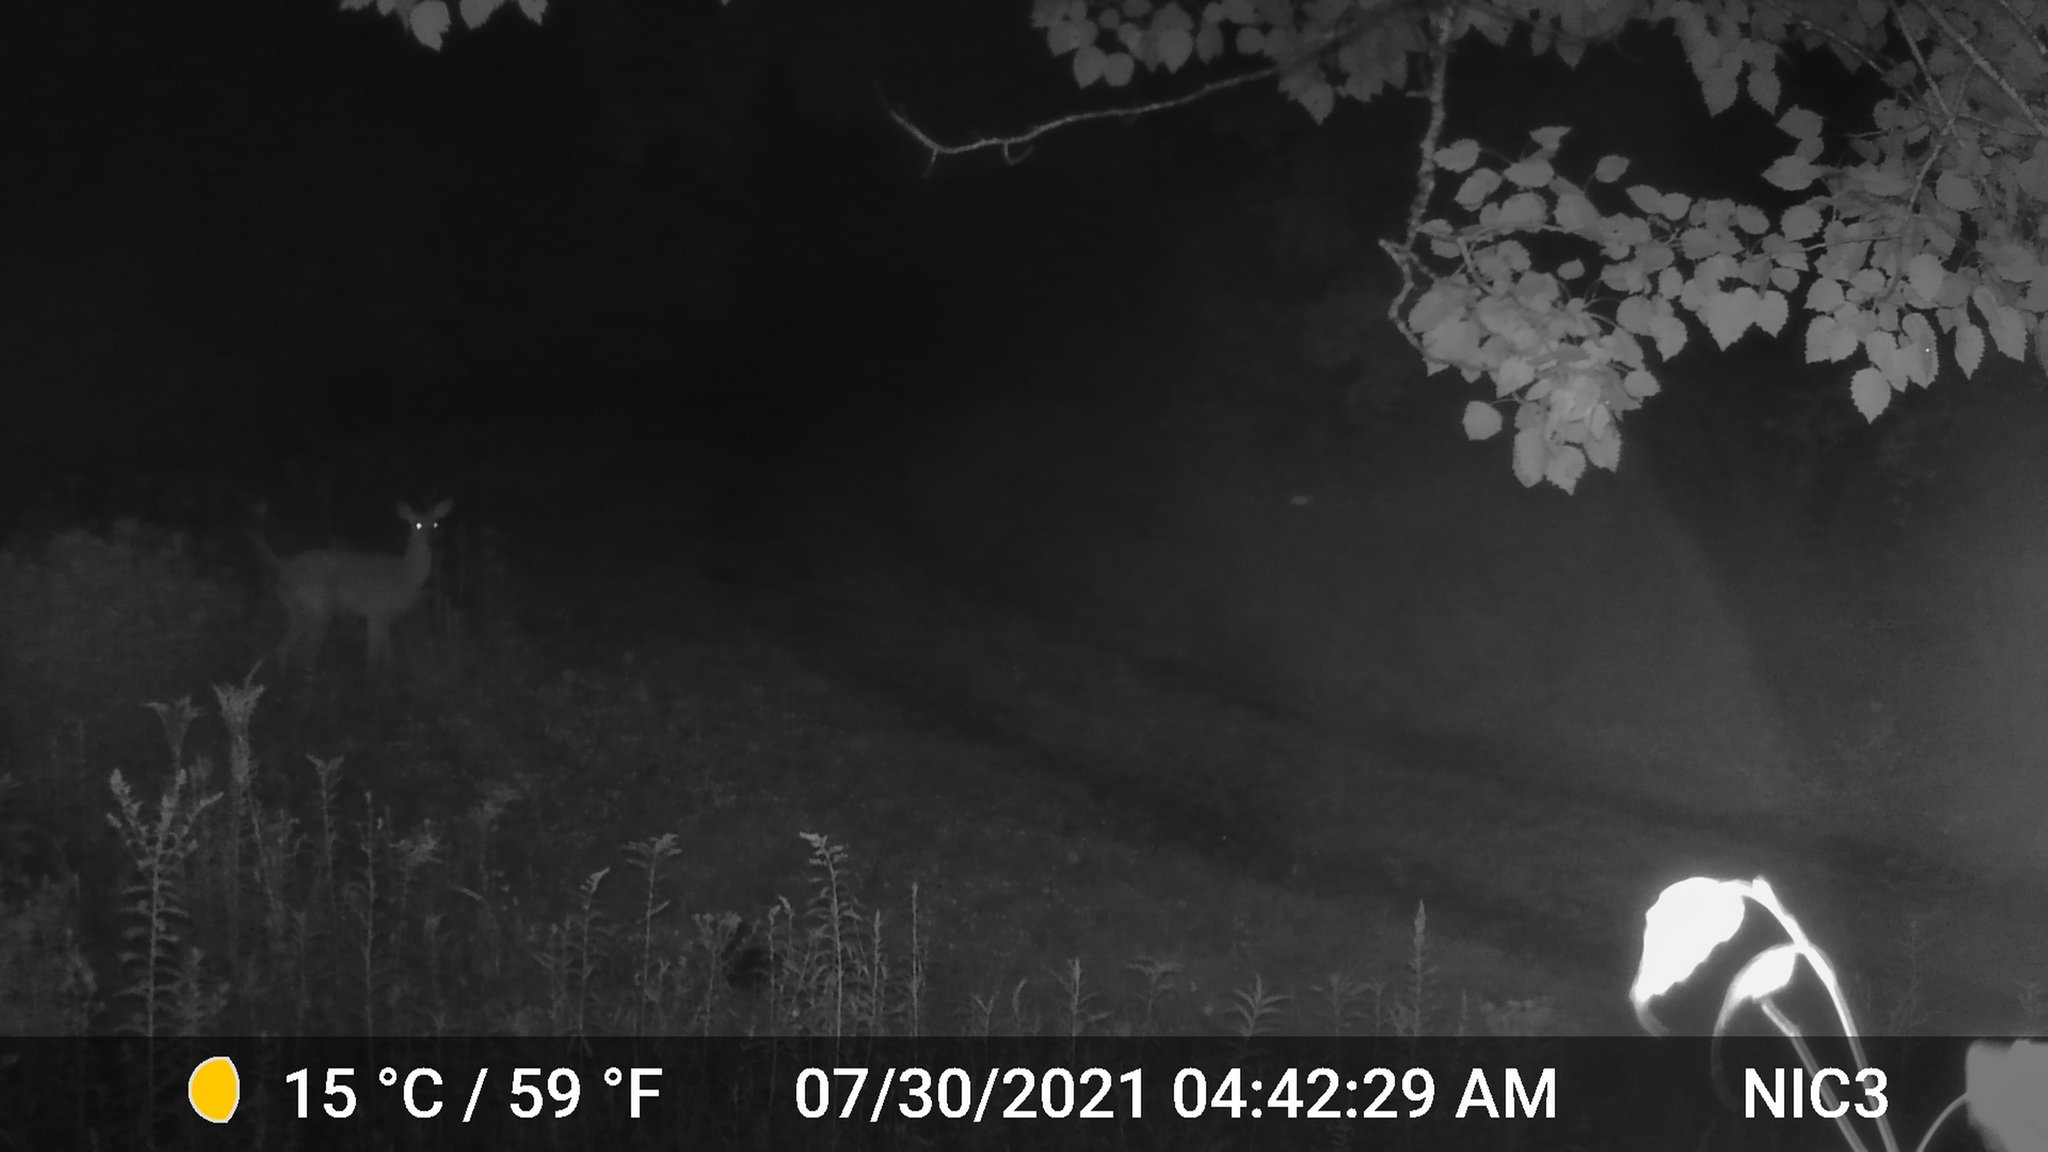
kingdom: Animalia
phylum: Chordata
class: Mammalia
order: Artiodactyla
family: Cervidae
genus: Odocoileus
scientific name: Odocoileus virginianus
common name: White-tailed deer
